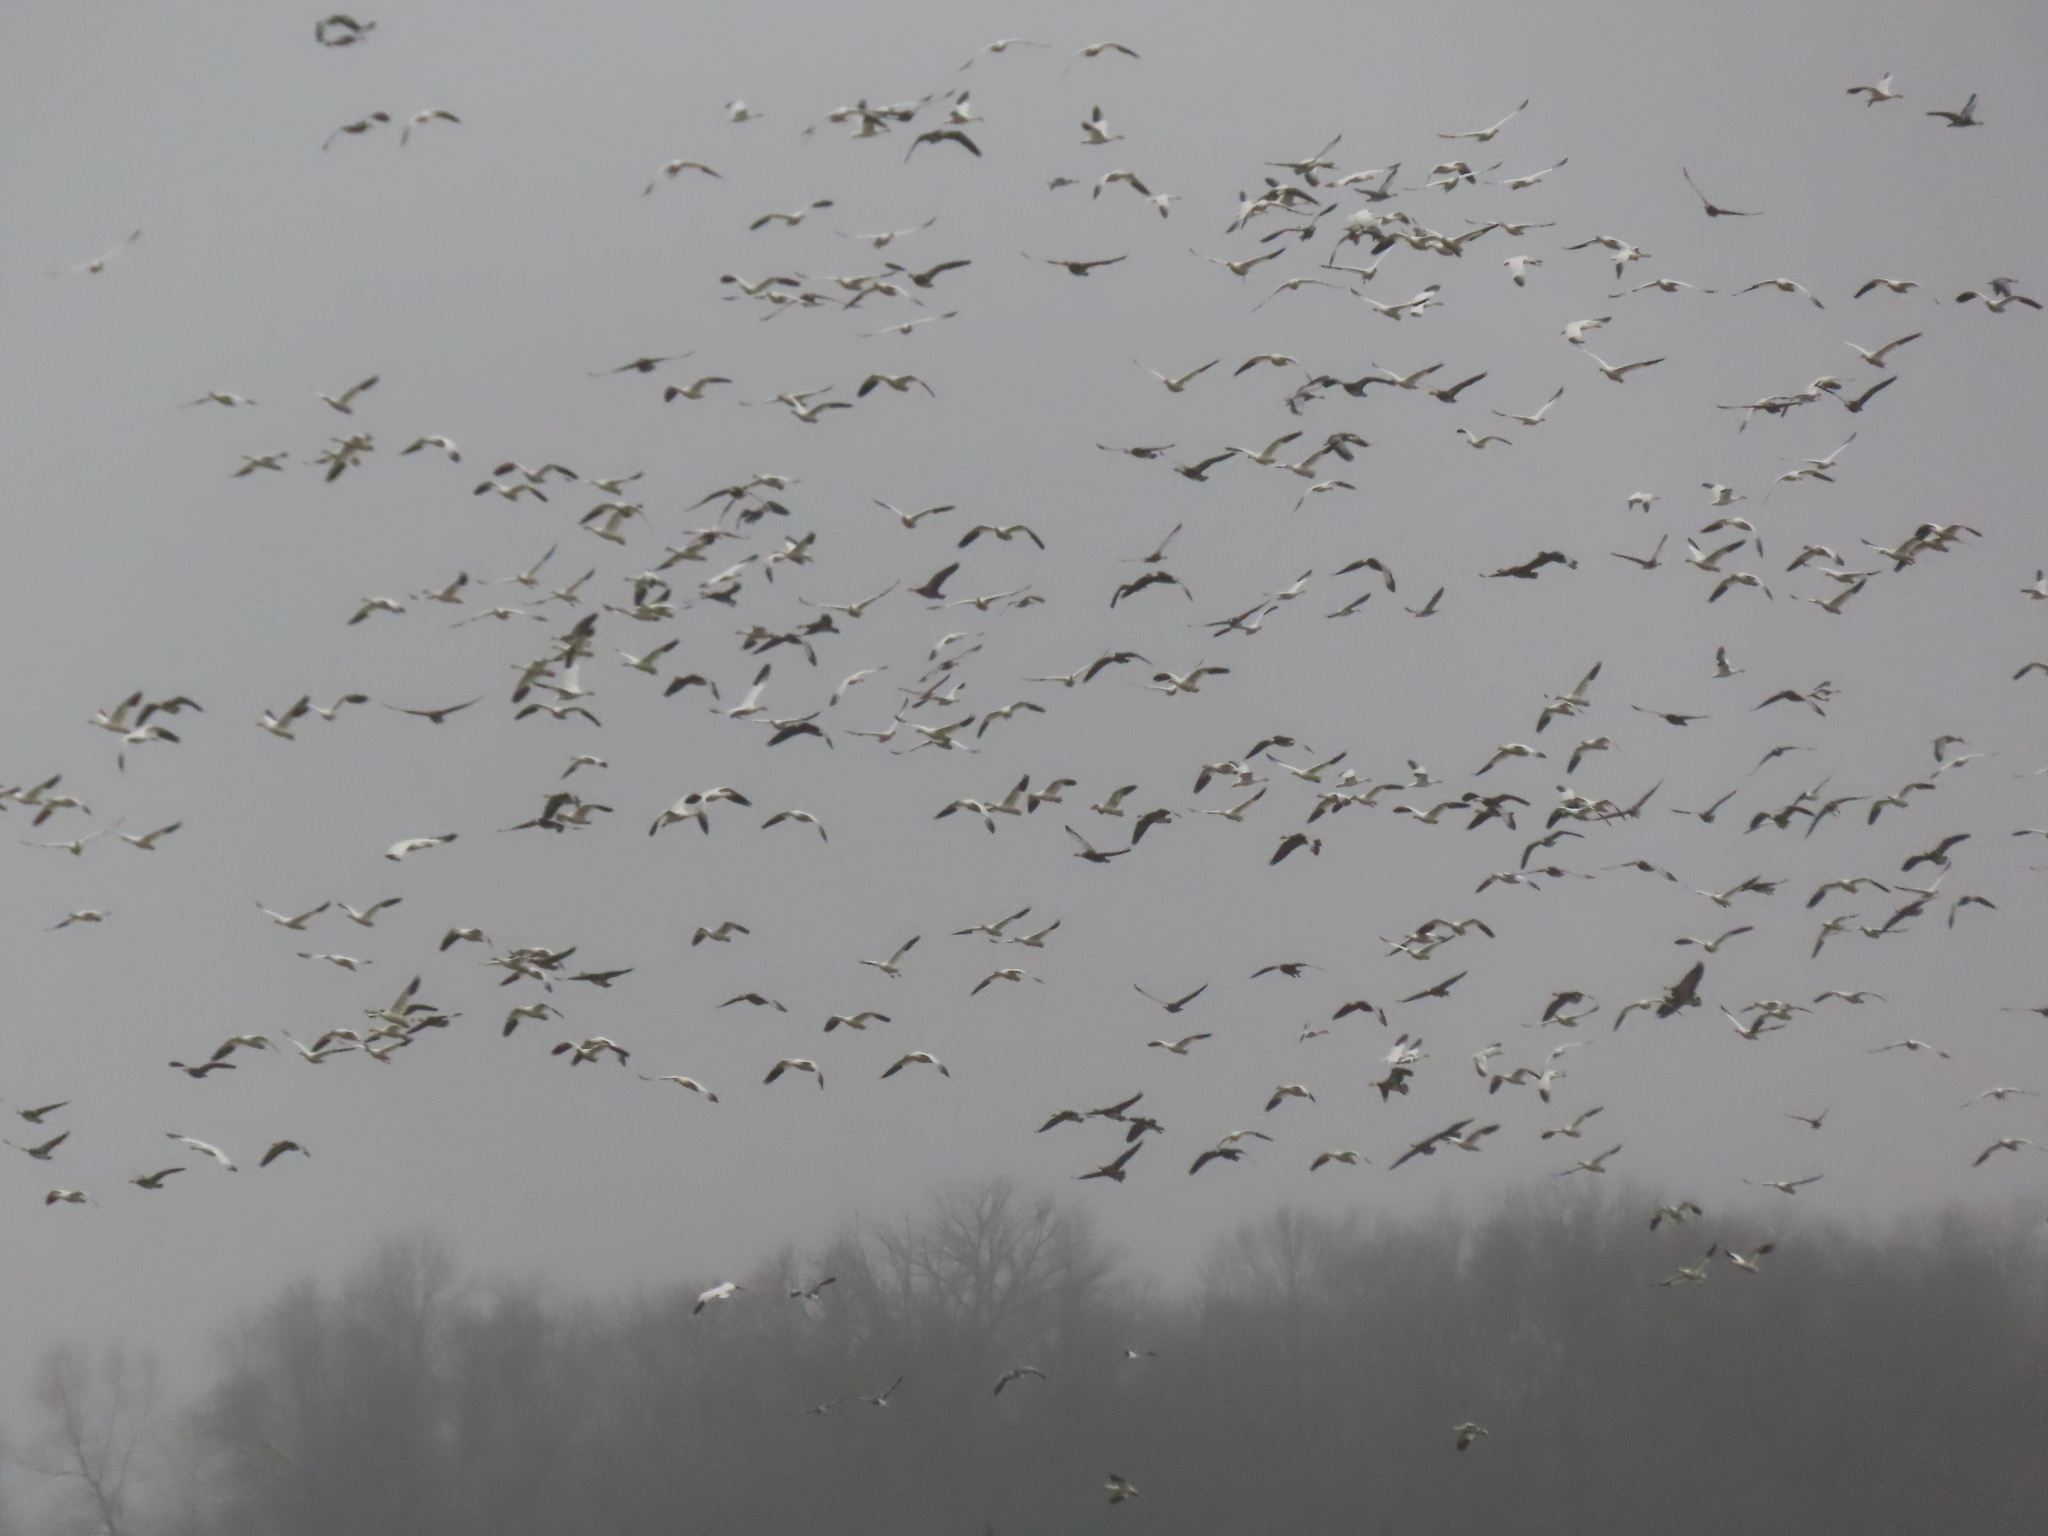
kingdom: Animalia
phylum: Chordata
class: Aves
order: Anseriformes
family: Anatidae
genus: Anser
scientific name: Anser caerulescens
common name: Snow goose
